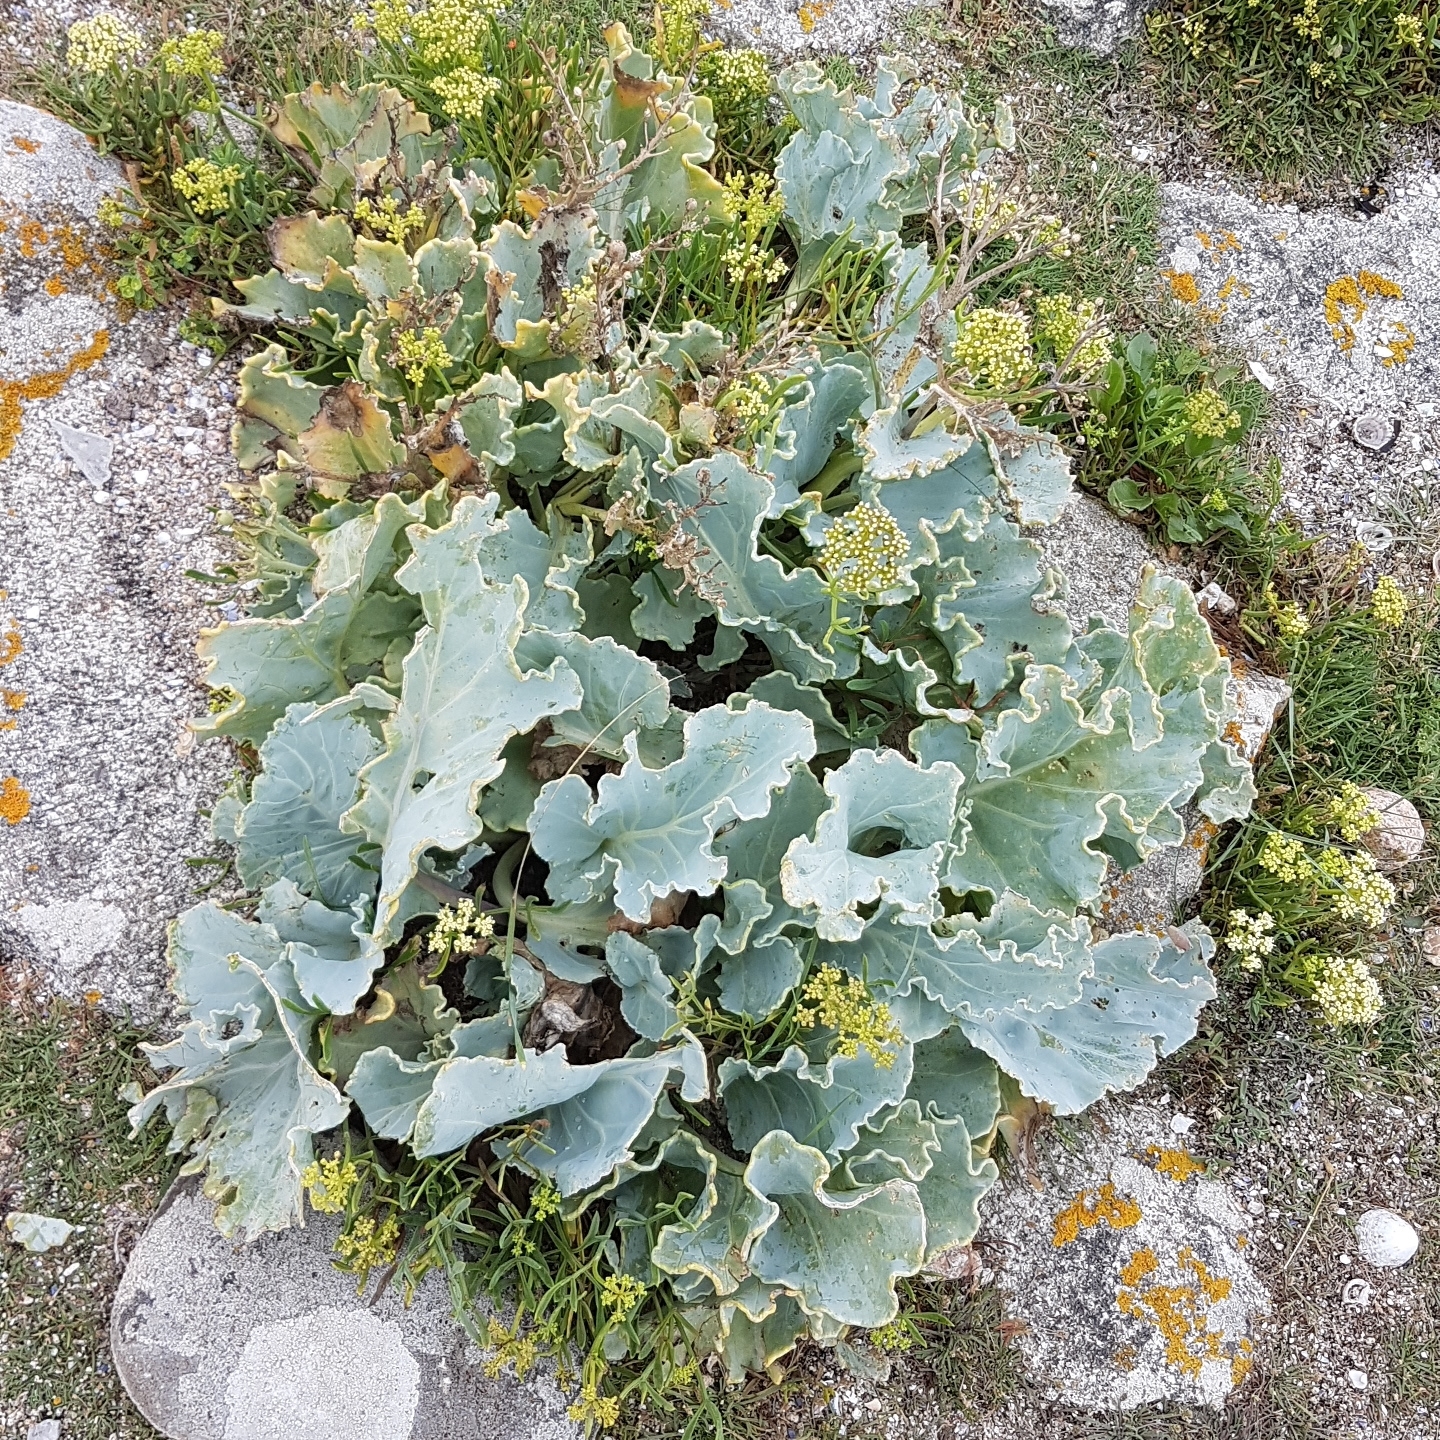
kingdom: Plantae
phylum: Tracheophyta
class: Magnoliopsida
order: Brassicales
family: Brassicaceae
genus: Crambe
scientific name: Crambe maritima
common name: Sea-kale
